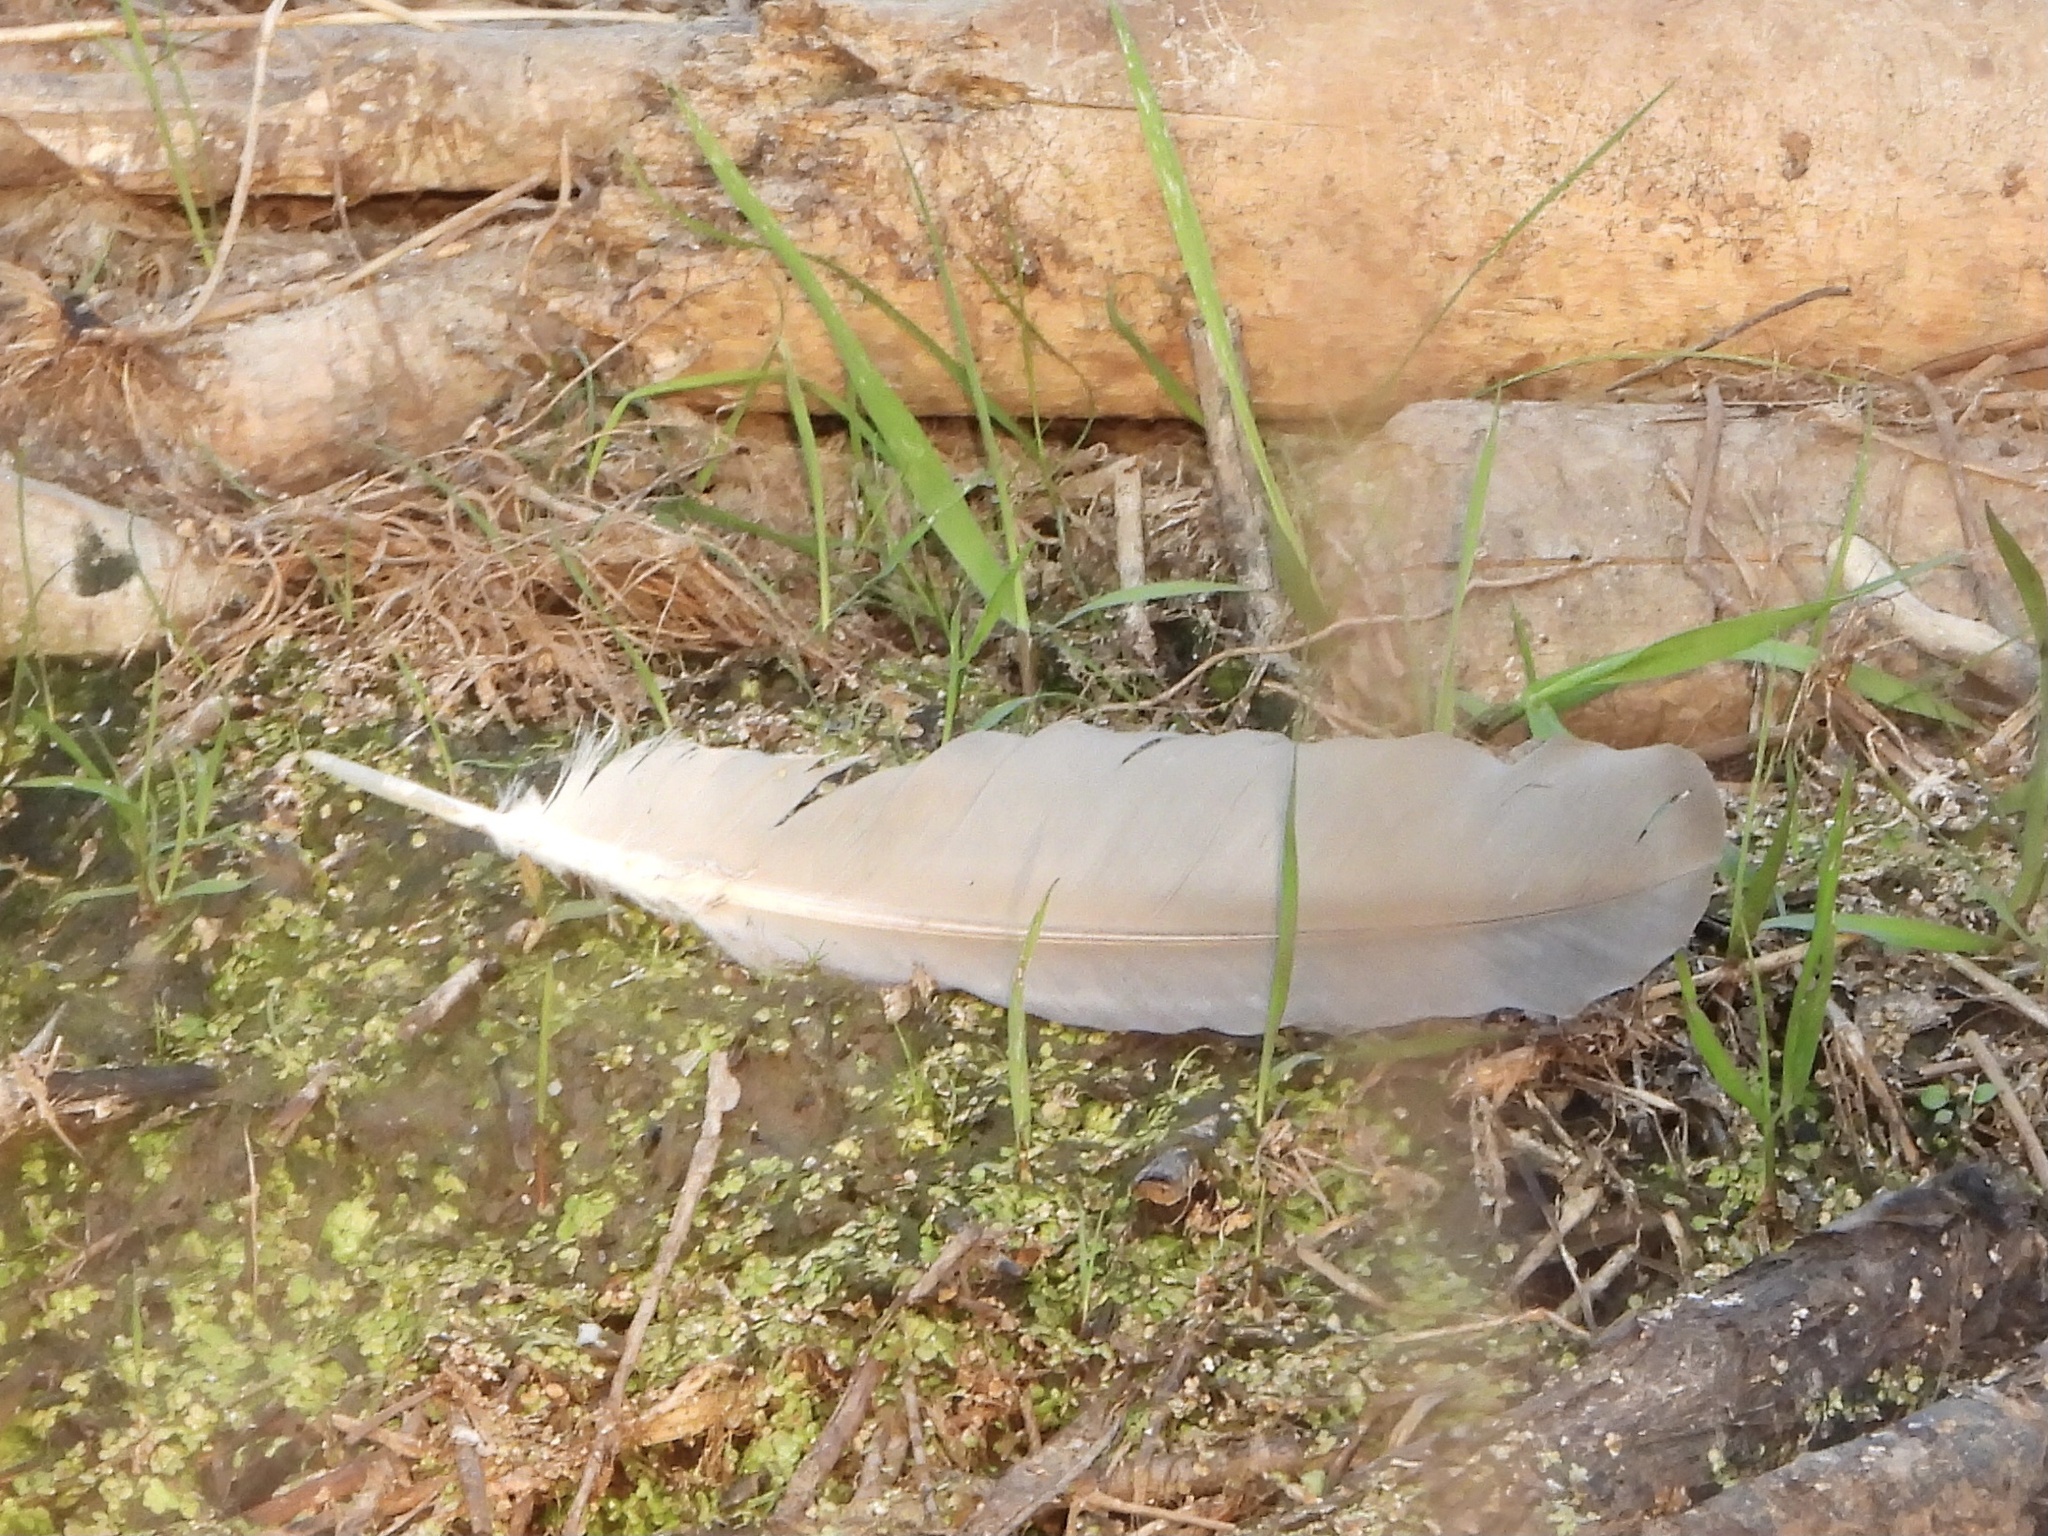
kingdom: Animalia
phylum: Chordata
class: Aves
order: Pelecaniformes
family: Ardeidae
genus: Ardea
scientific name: Ardea herodias
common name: Great blue heron
